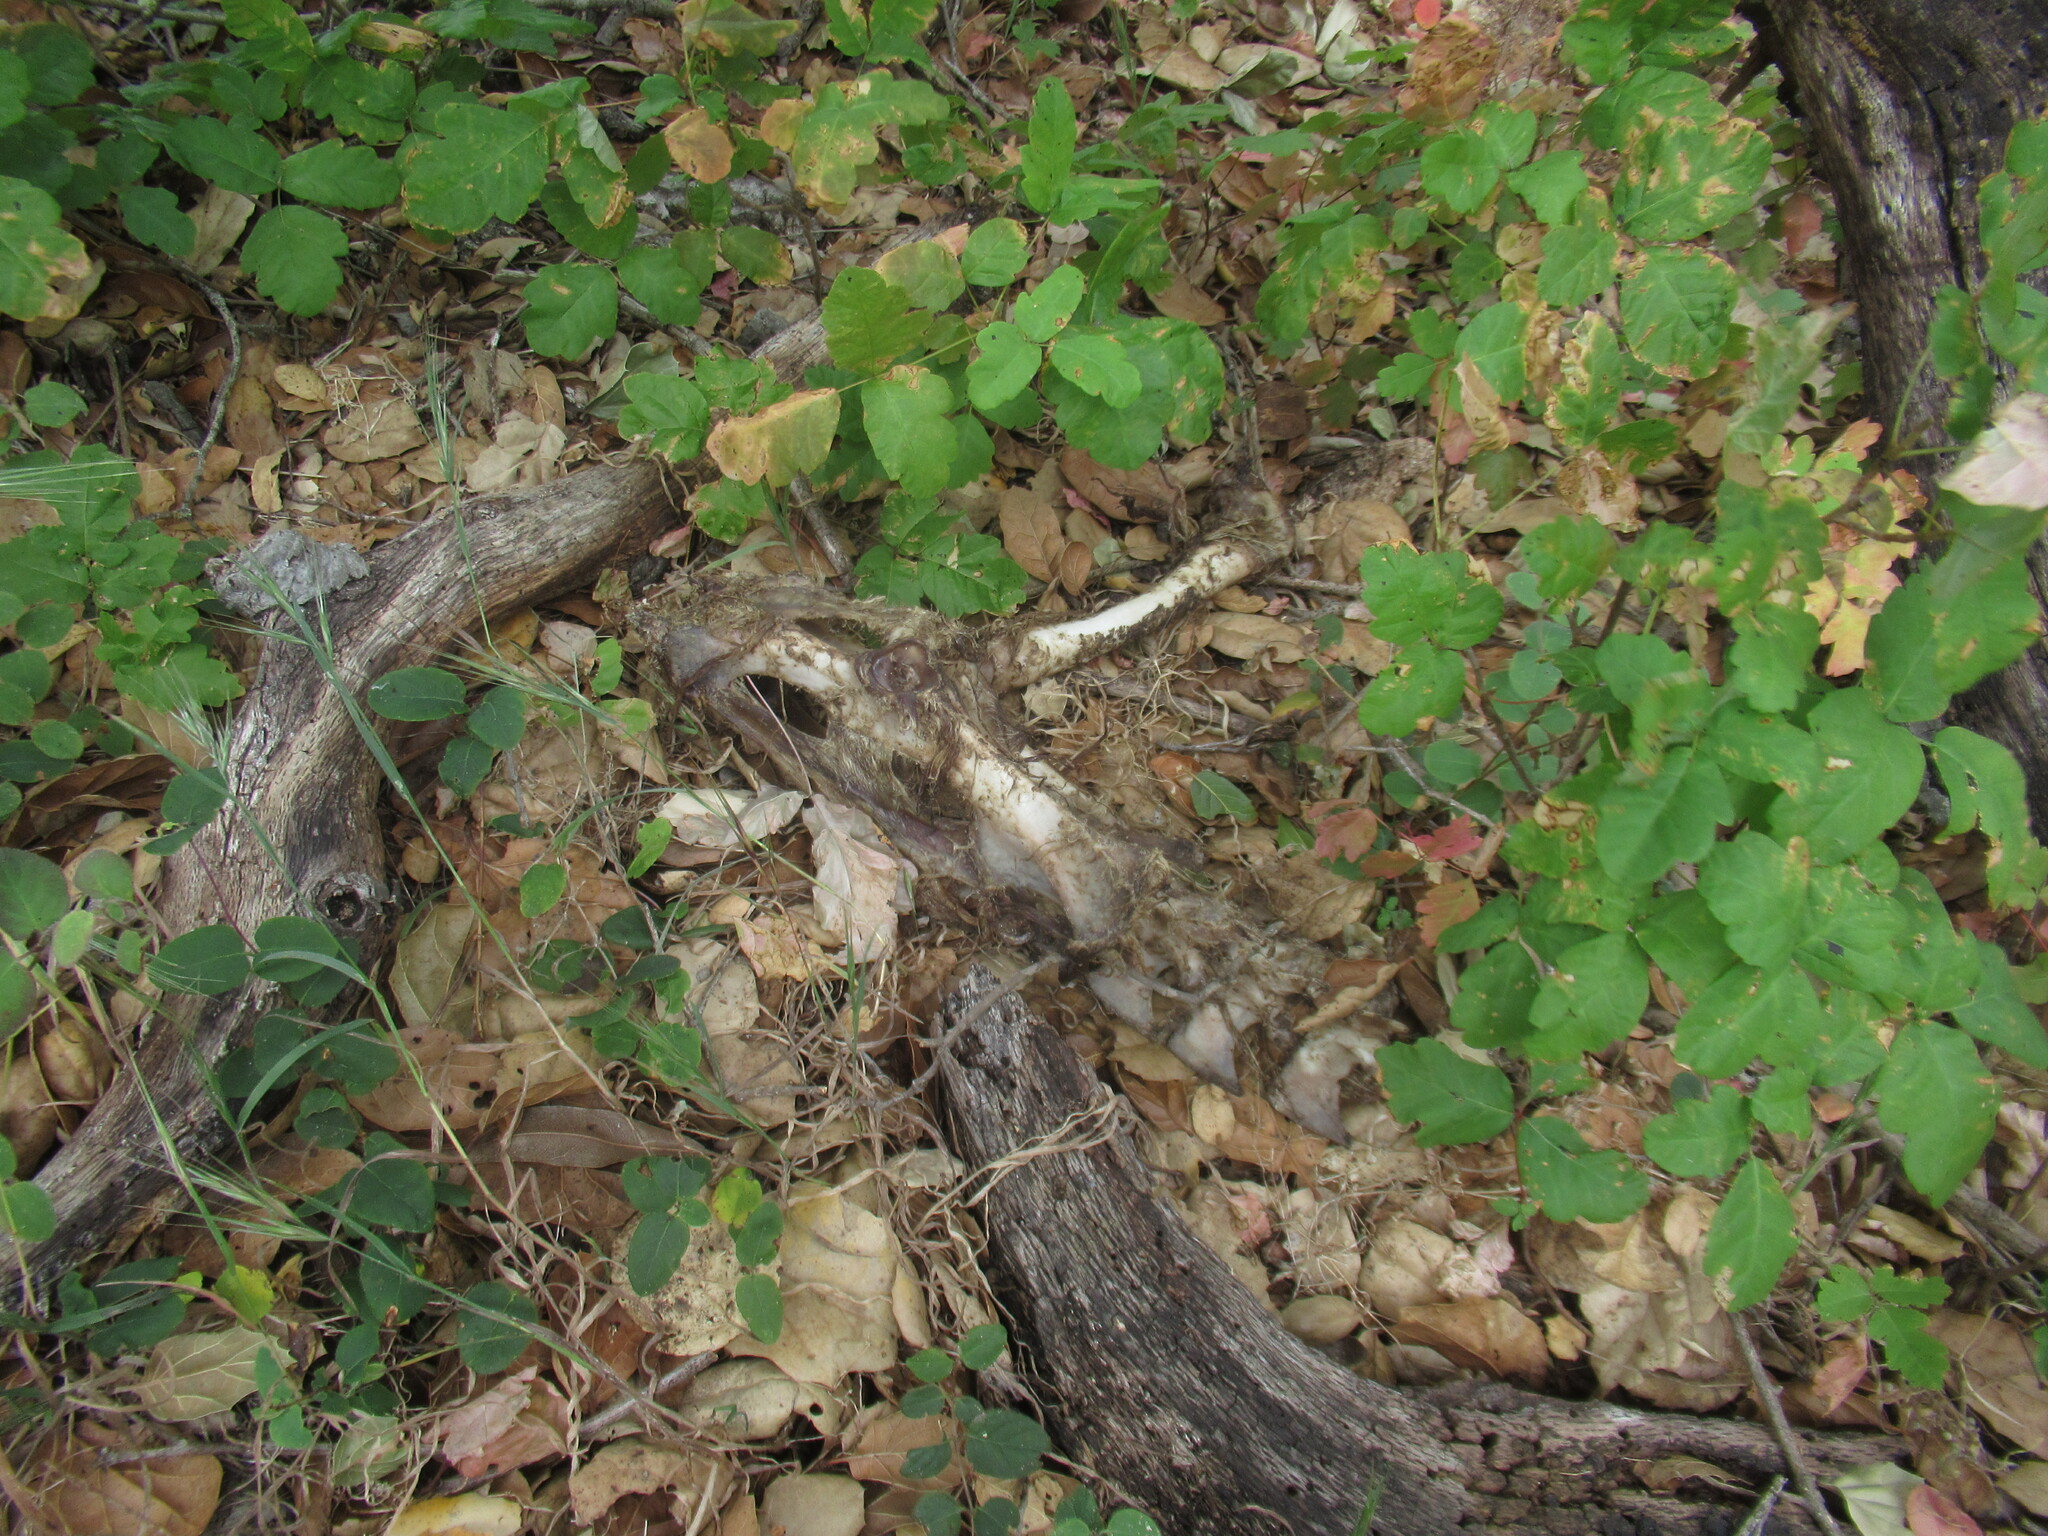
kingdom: Animalia
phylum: Chordata
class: Mammalia
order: Artiodactyla
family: Cervidae
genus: Odocoileus
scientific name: Odocoileus hemionus
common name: Mule deer
